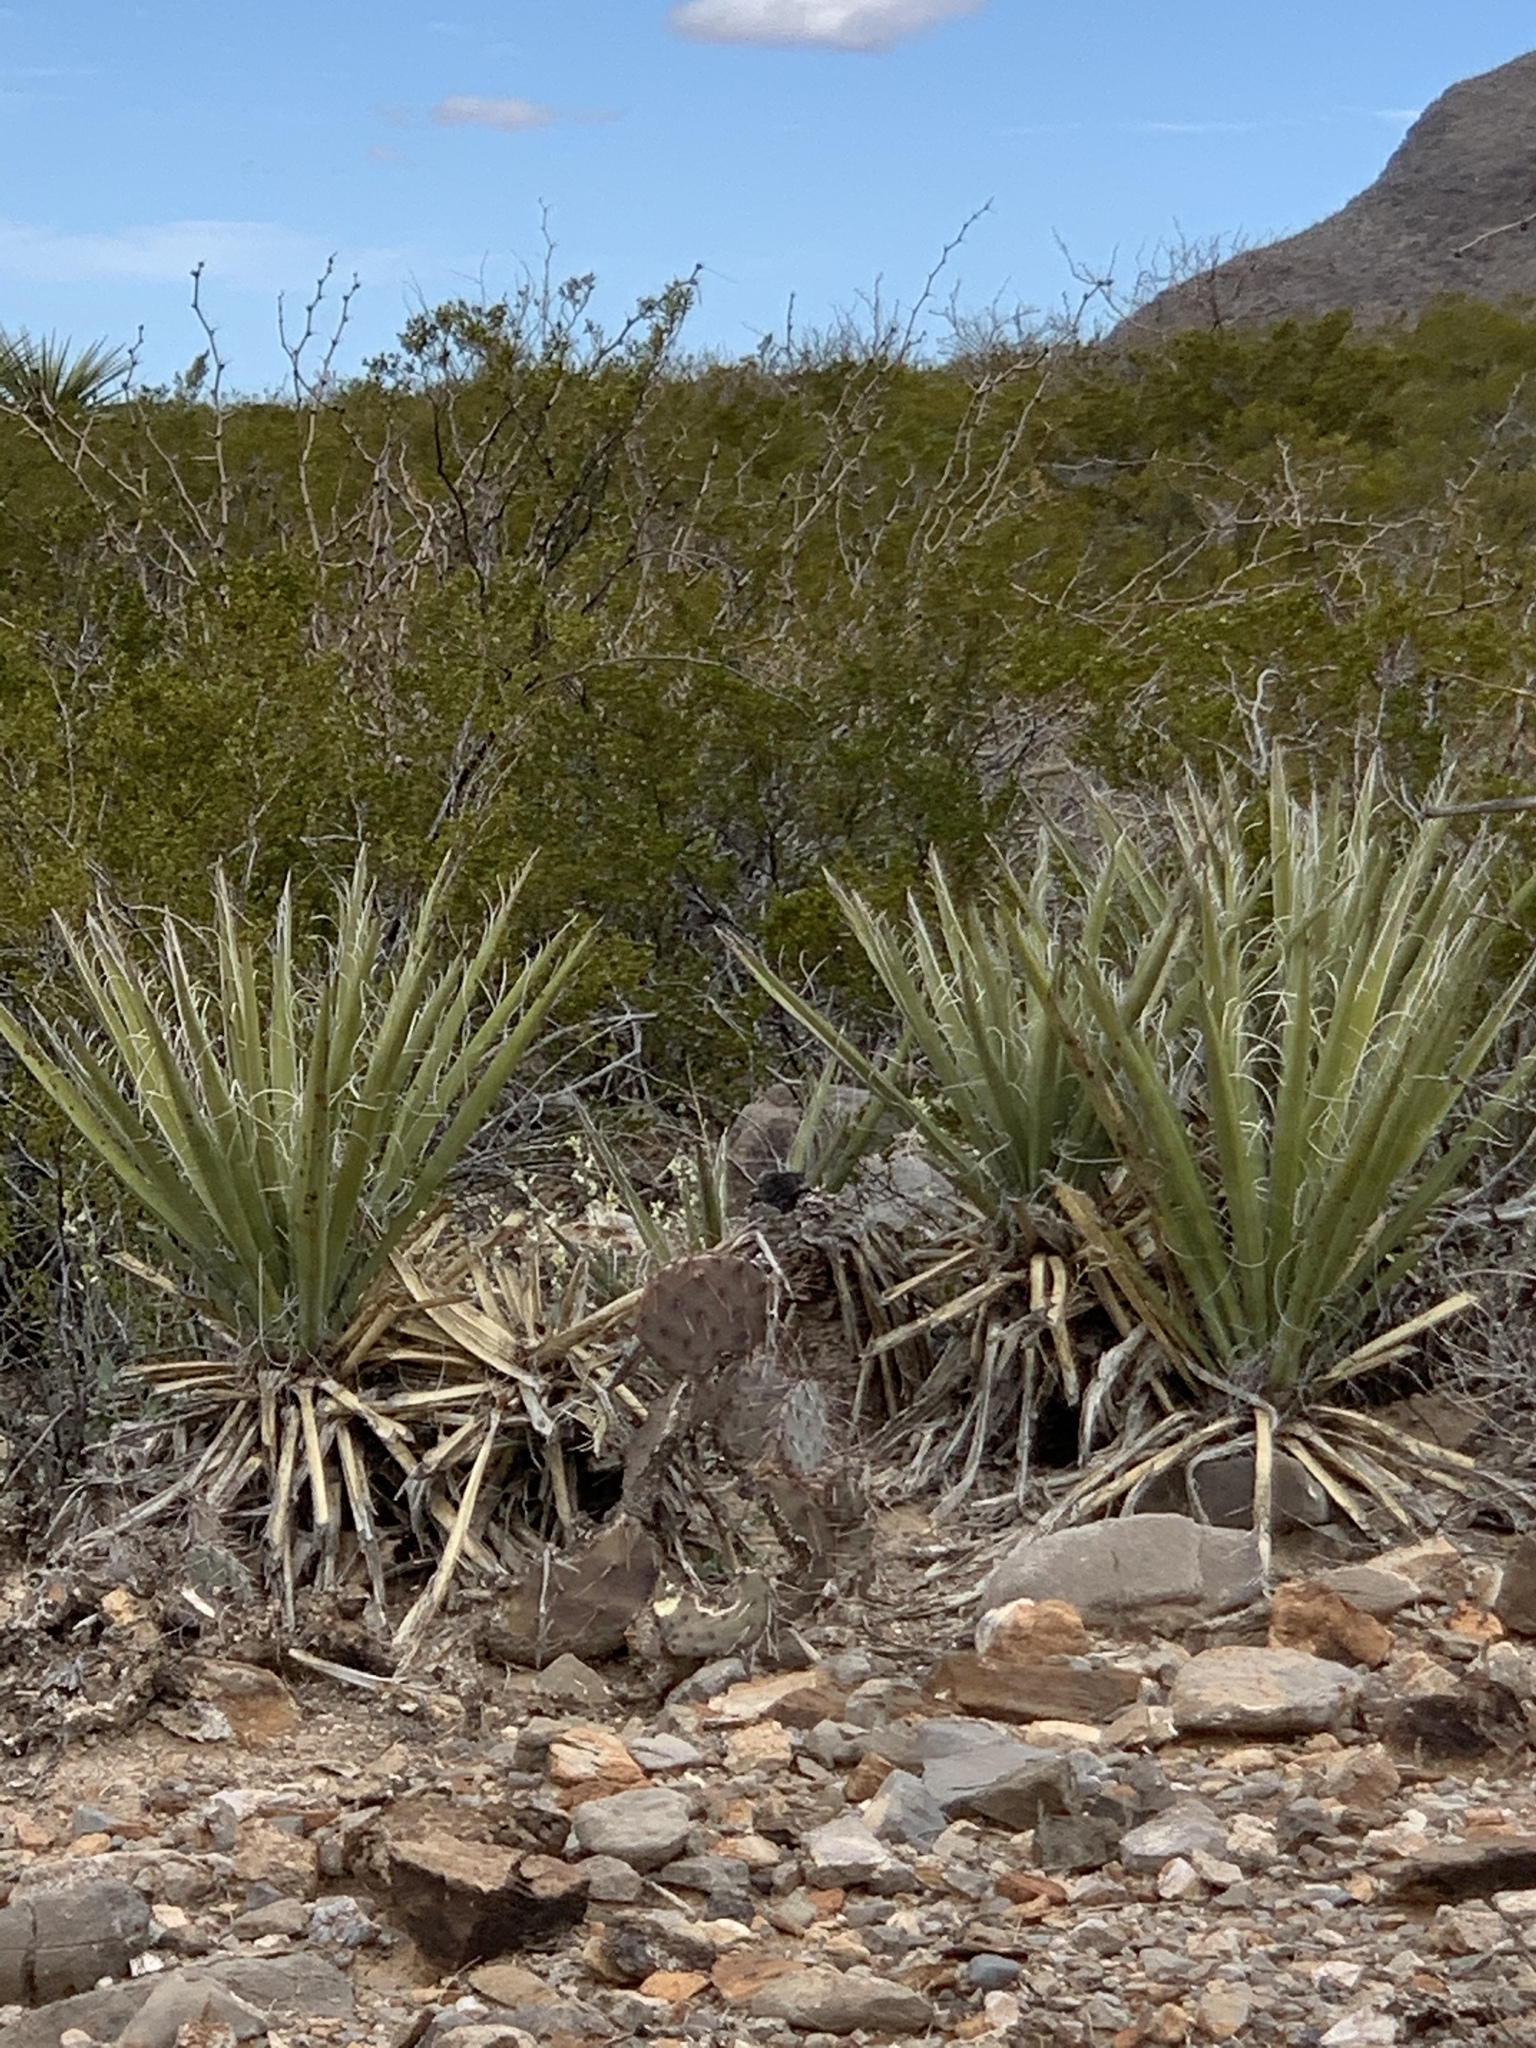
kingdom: Plantae
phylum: Tracheophyta
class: Liliopsida
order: Asparagales
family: Asparagaceae
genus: Yucca
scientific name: Yucca baccata
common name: Banana yucca
